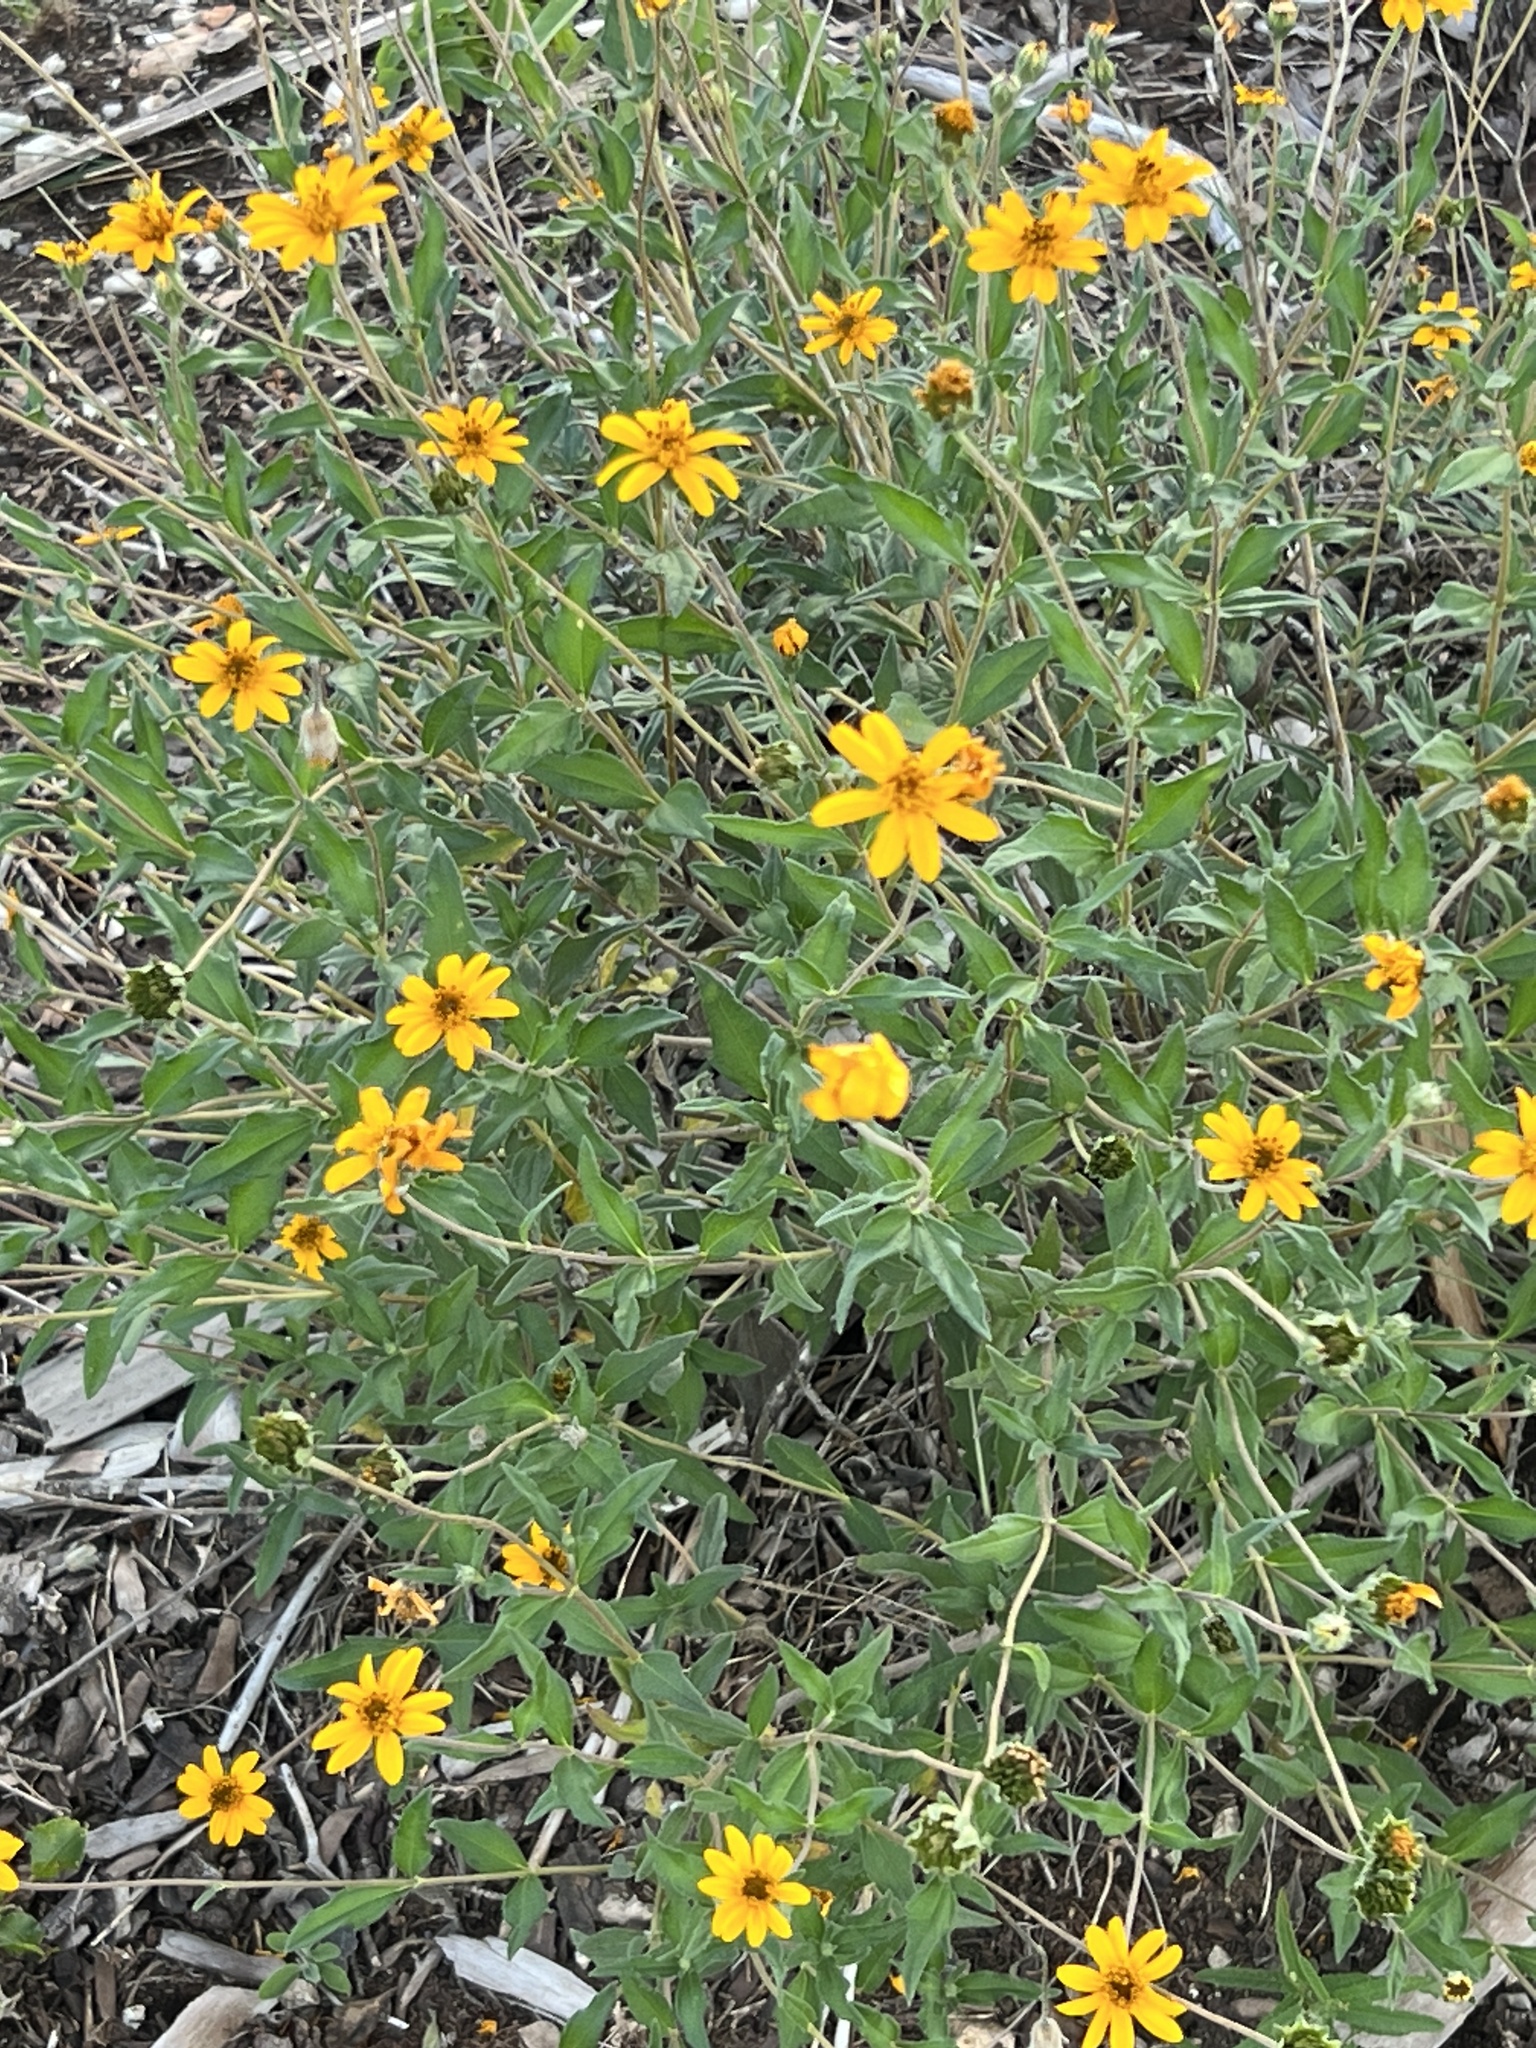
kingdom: Plantae
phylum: Tracheophyta
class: Magnoliopsida
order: Asterales
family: Asteraceae
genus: Wedelia
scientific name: Wedelia acapulcensis
